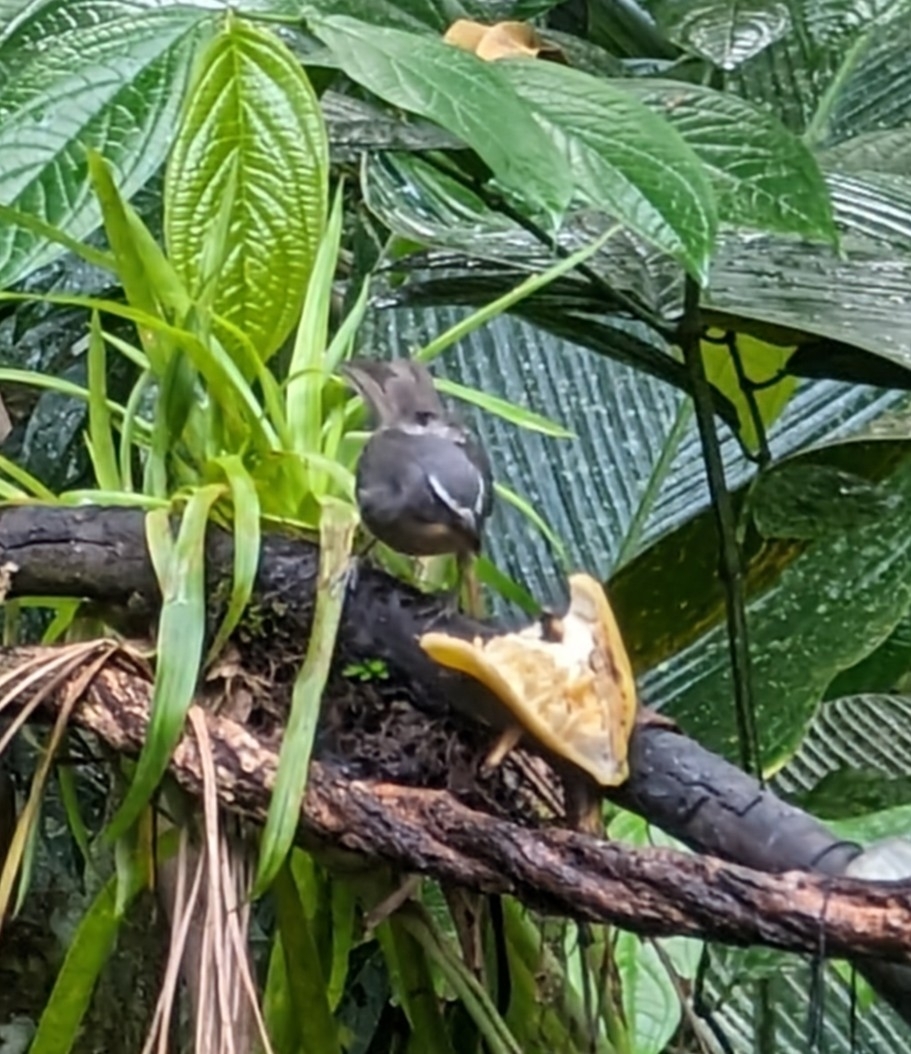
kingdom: Animalia
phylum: Chordata
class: Aves
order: Passeriformes
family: Thraupidae
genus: Saltator
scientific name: Saltator grandis
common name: Cinnamon-bellied saltator
